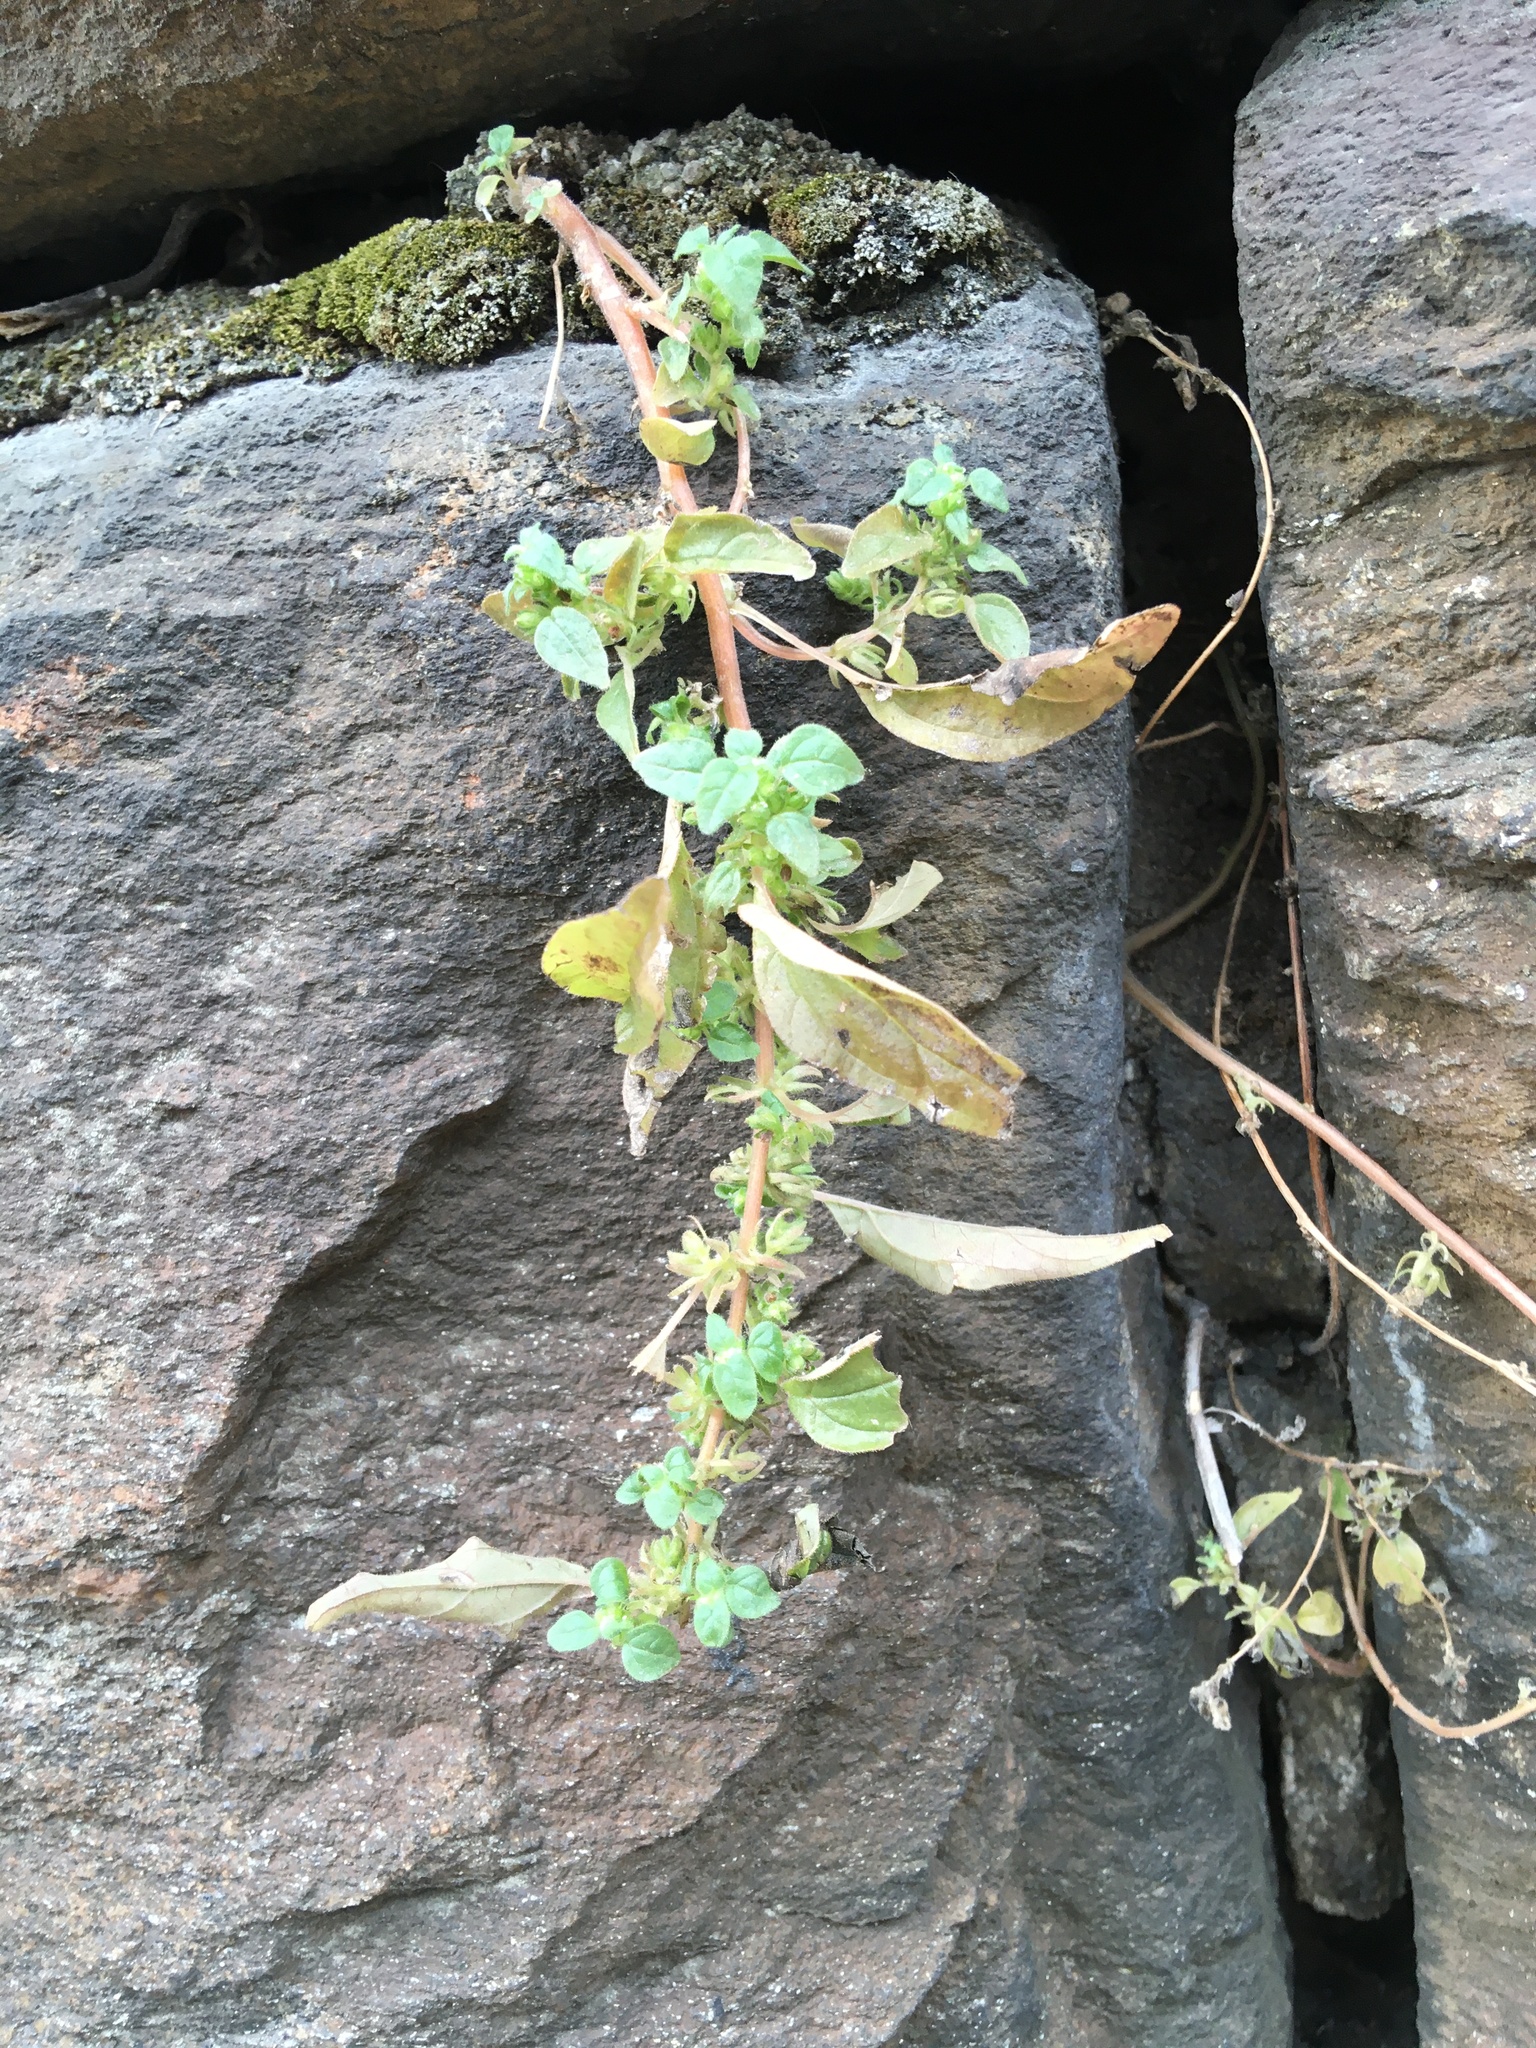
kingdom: Plantae
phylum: Tracheophyta
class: Magnoliopsida
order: Rosales
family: Urticaceae
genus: Parietaria
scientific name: Parietaria pensylvanica
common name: Pennsylvania pellitory
